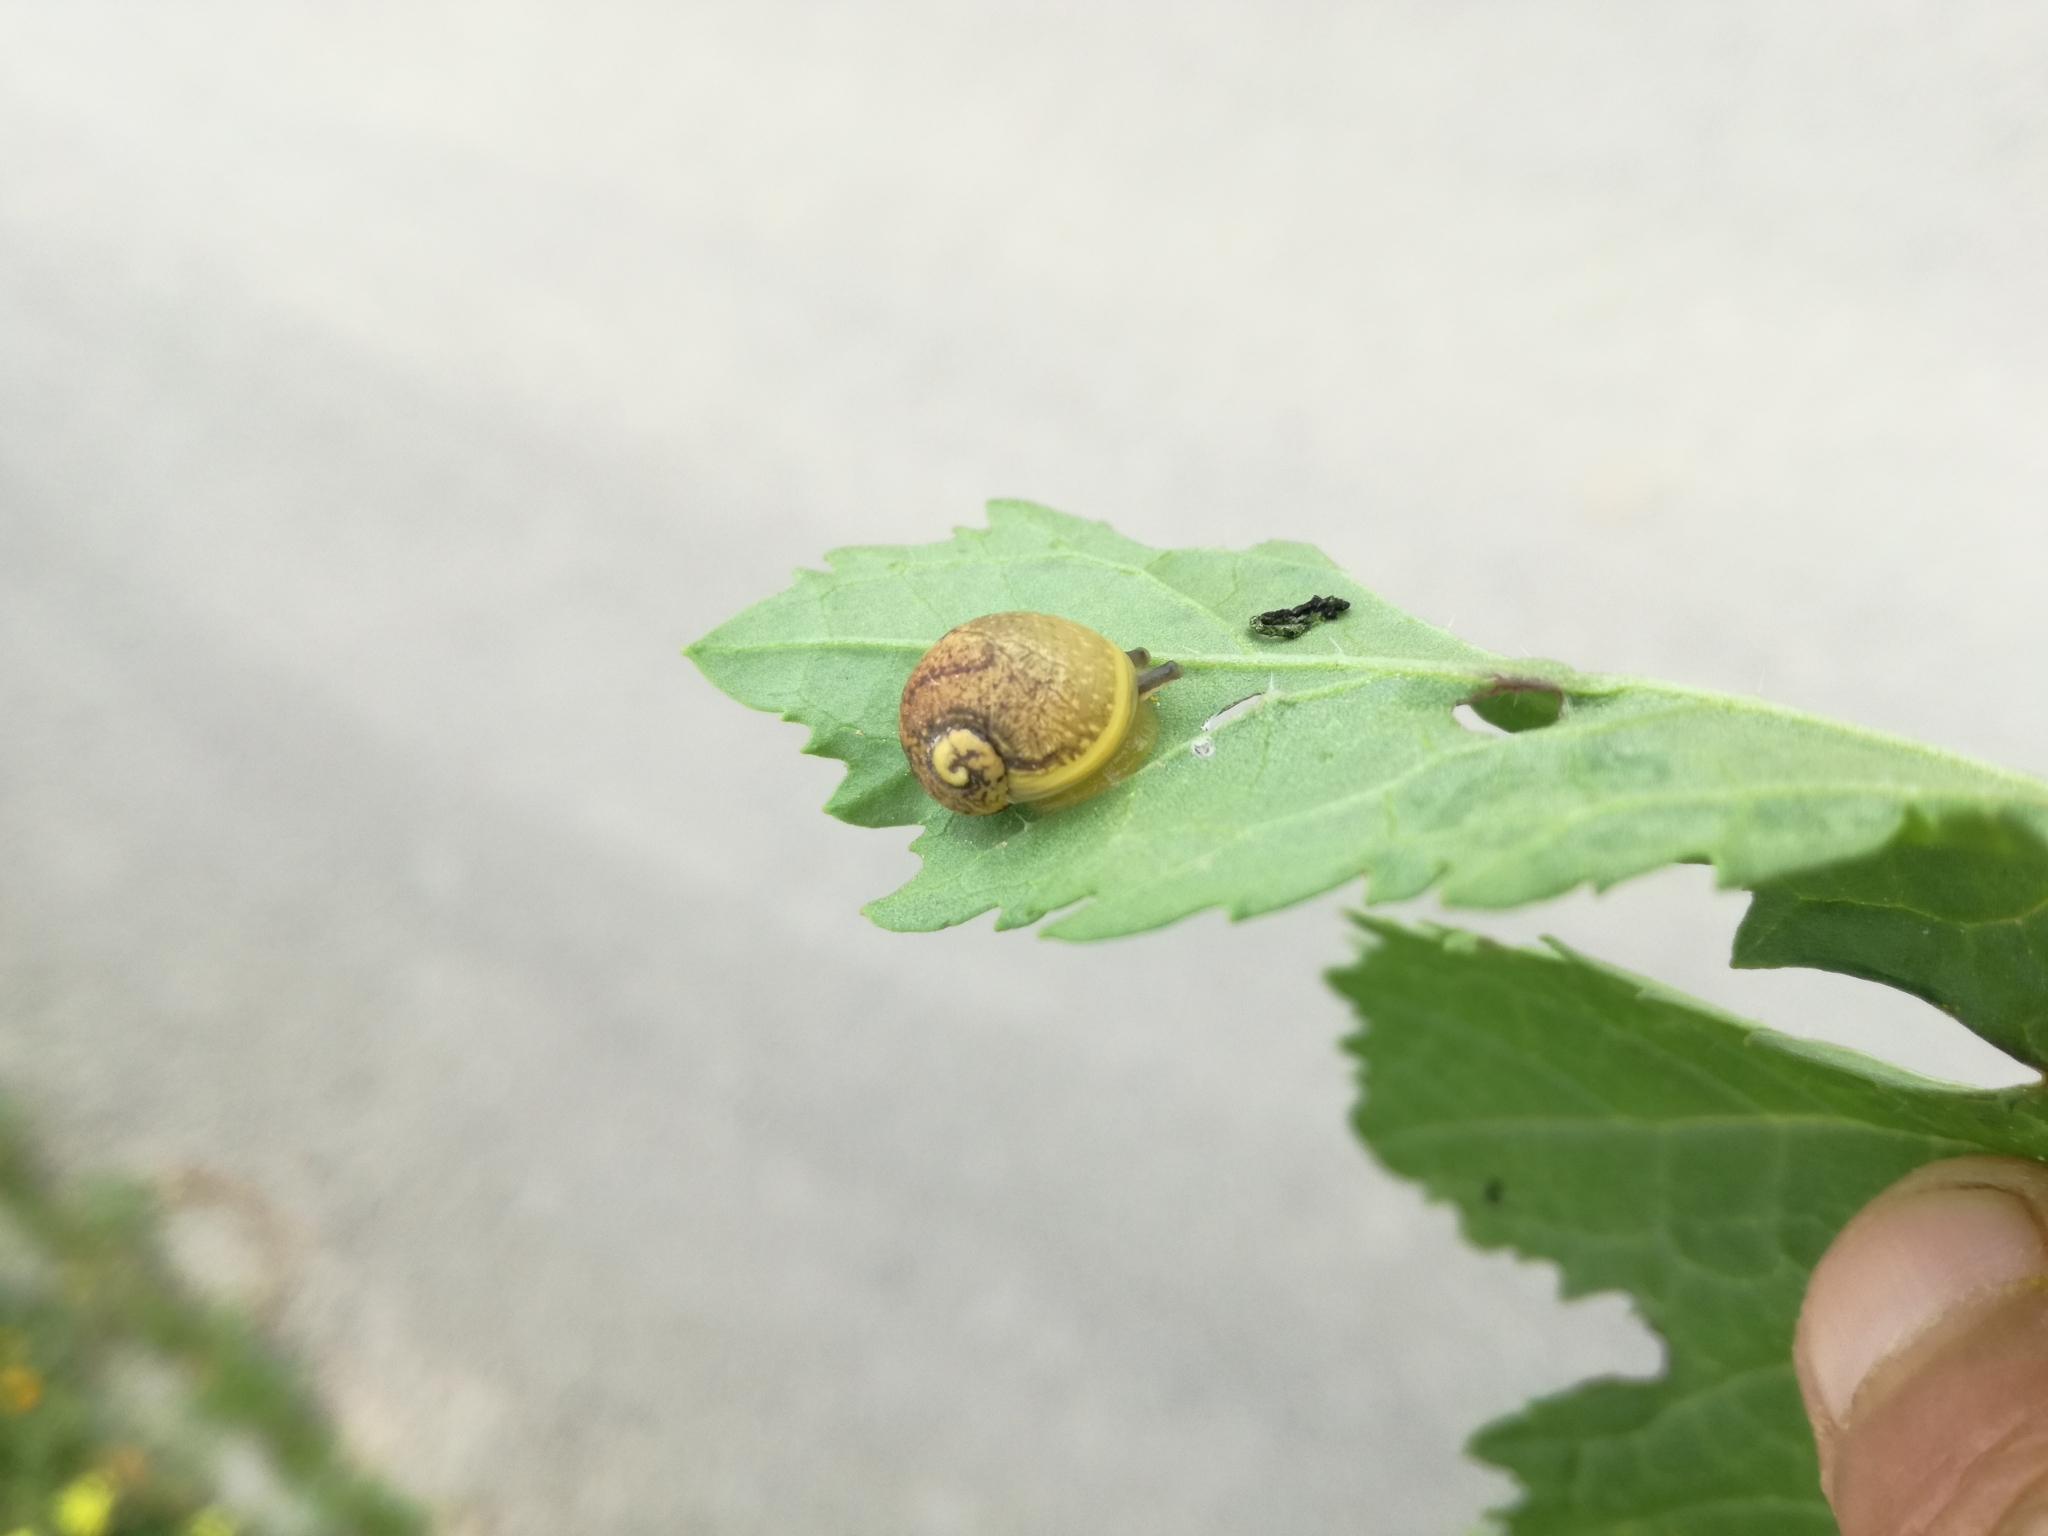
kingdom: Animalia
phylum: Mollusca
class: Gastropoda
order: Stylommatophora
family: Helicidae
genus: Cantareus
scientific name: Cantareus apertus
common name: Green gardensnail
